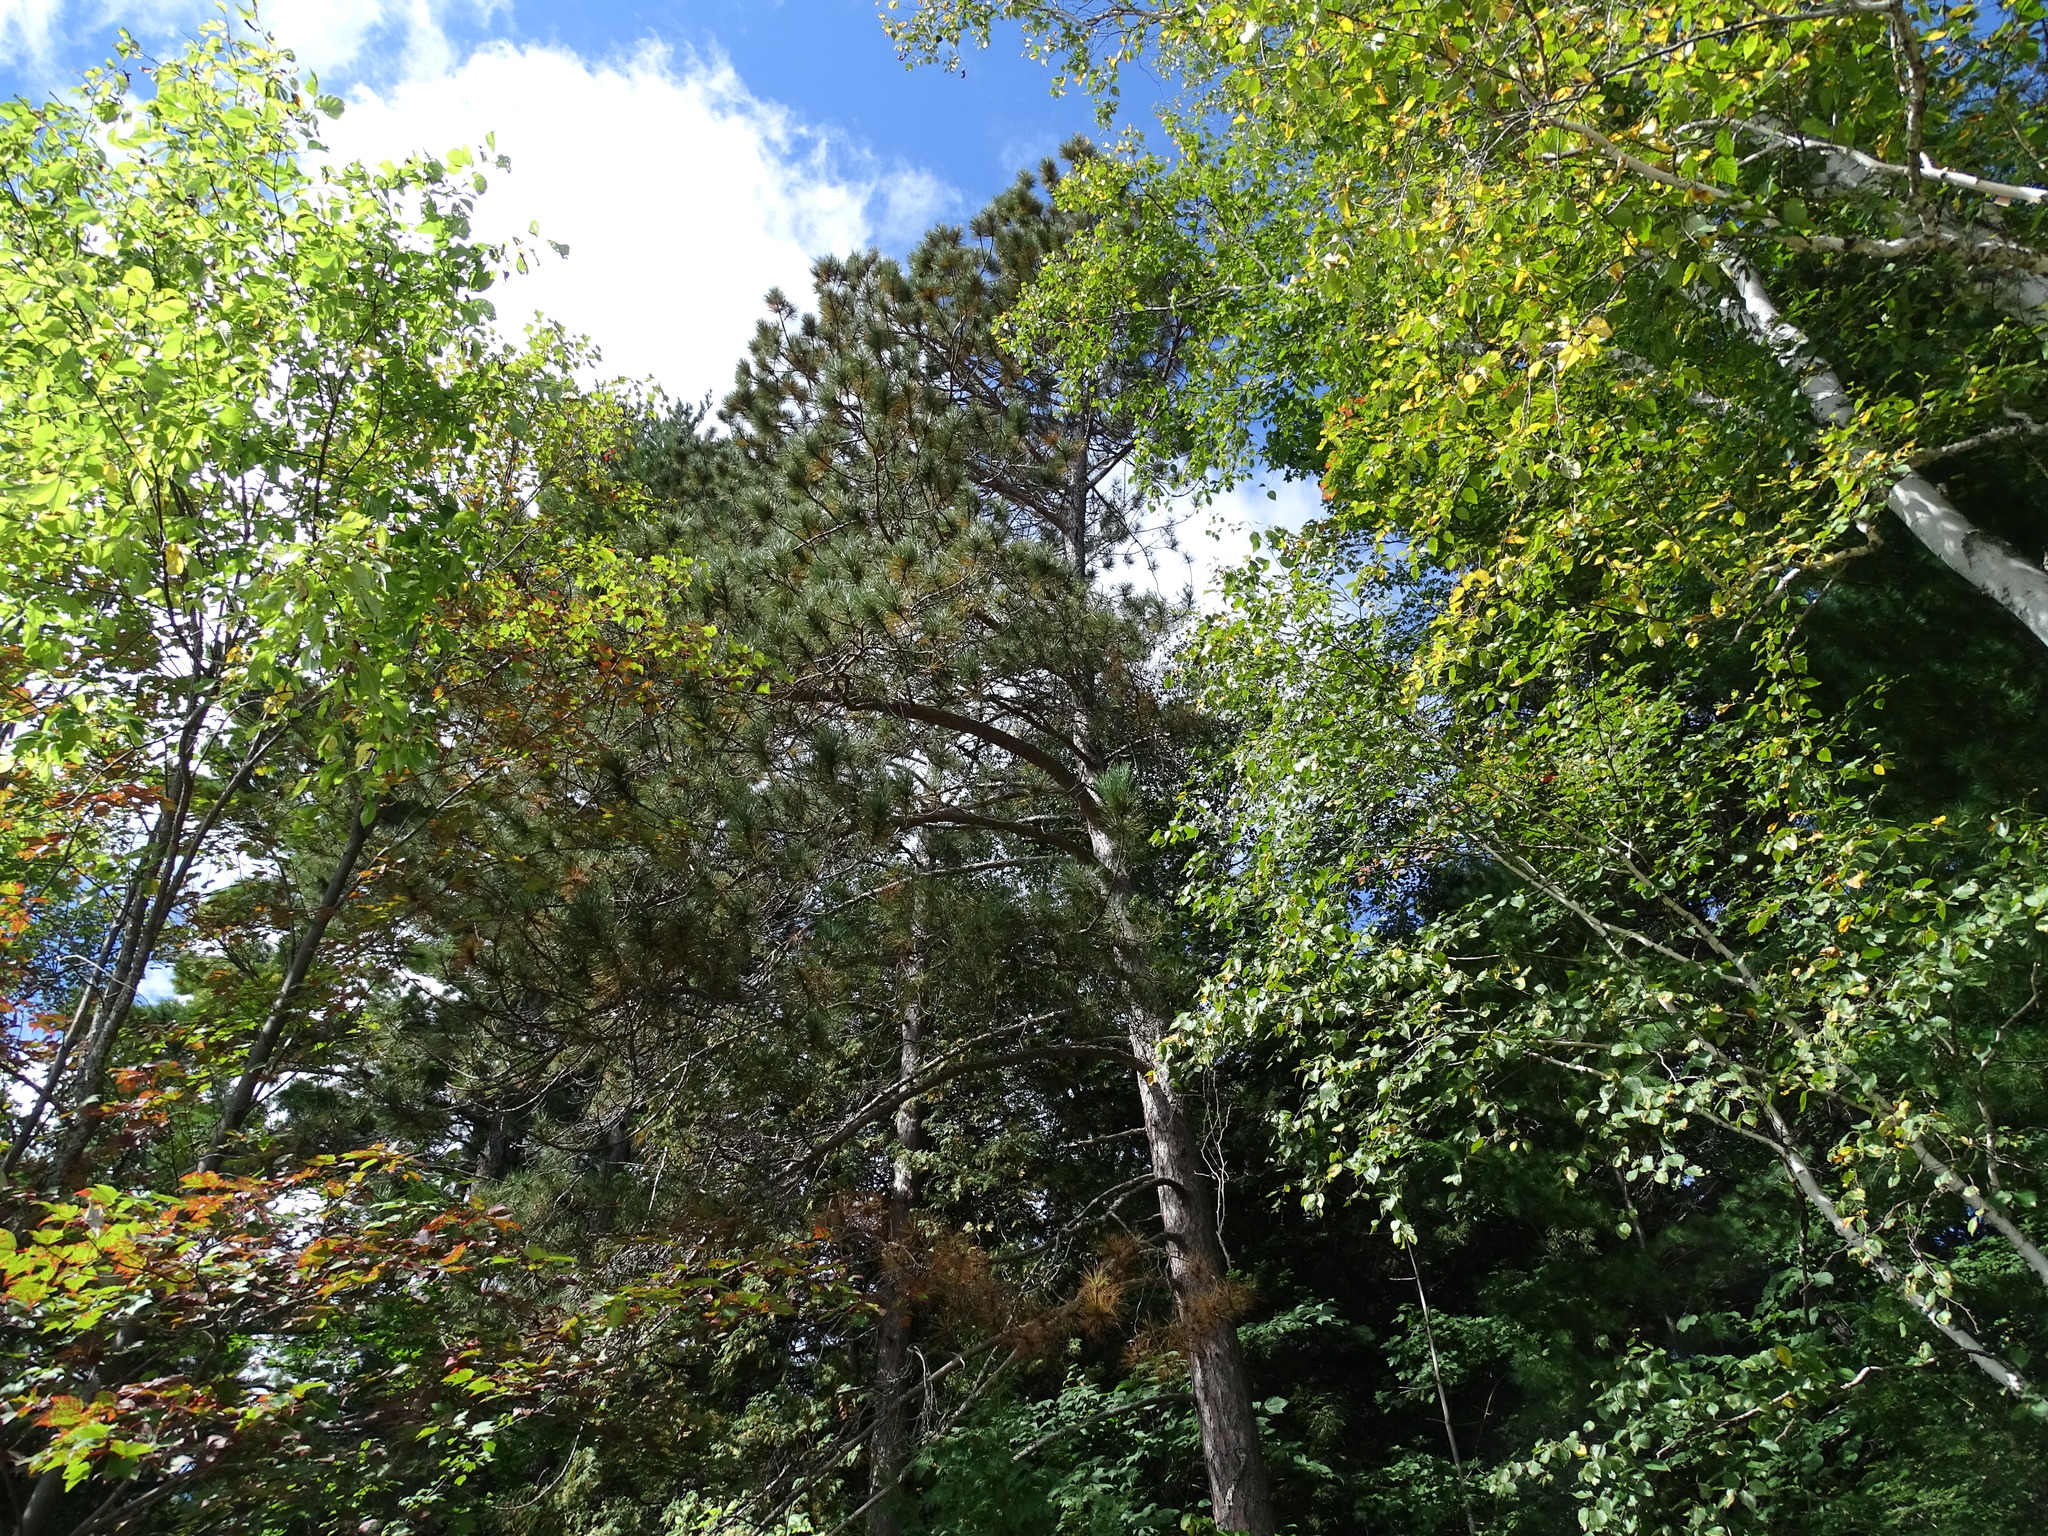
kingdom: Plantae
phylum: Tracheophyta
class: Pinopsida
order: Pinales
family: Pinaceae
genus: Pinus
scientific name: Pinus resinosa
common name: Norway pine
